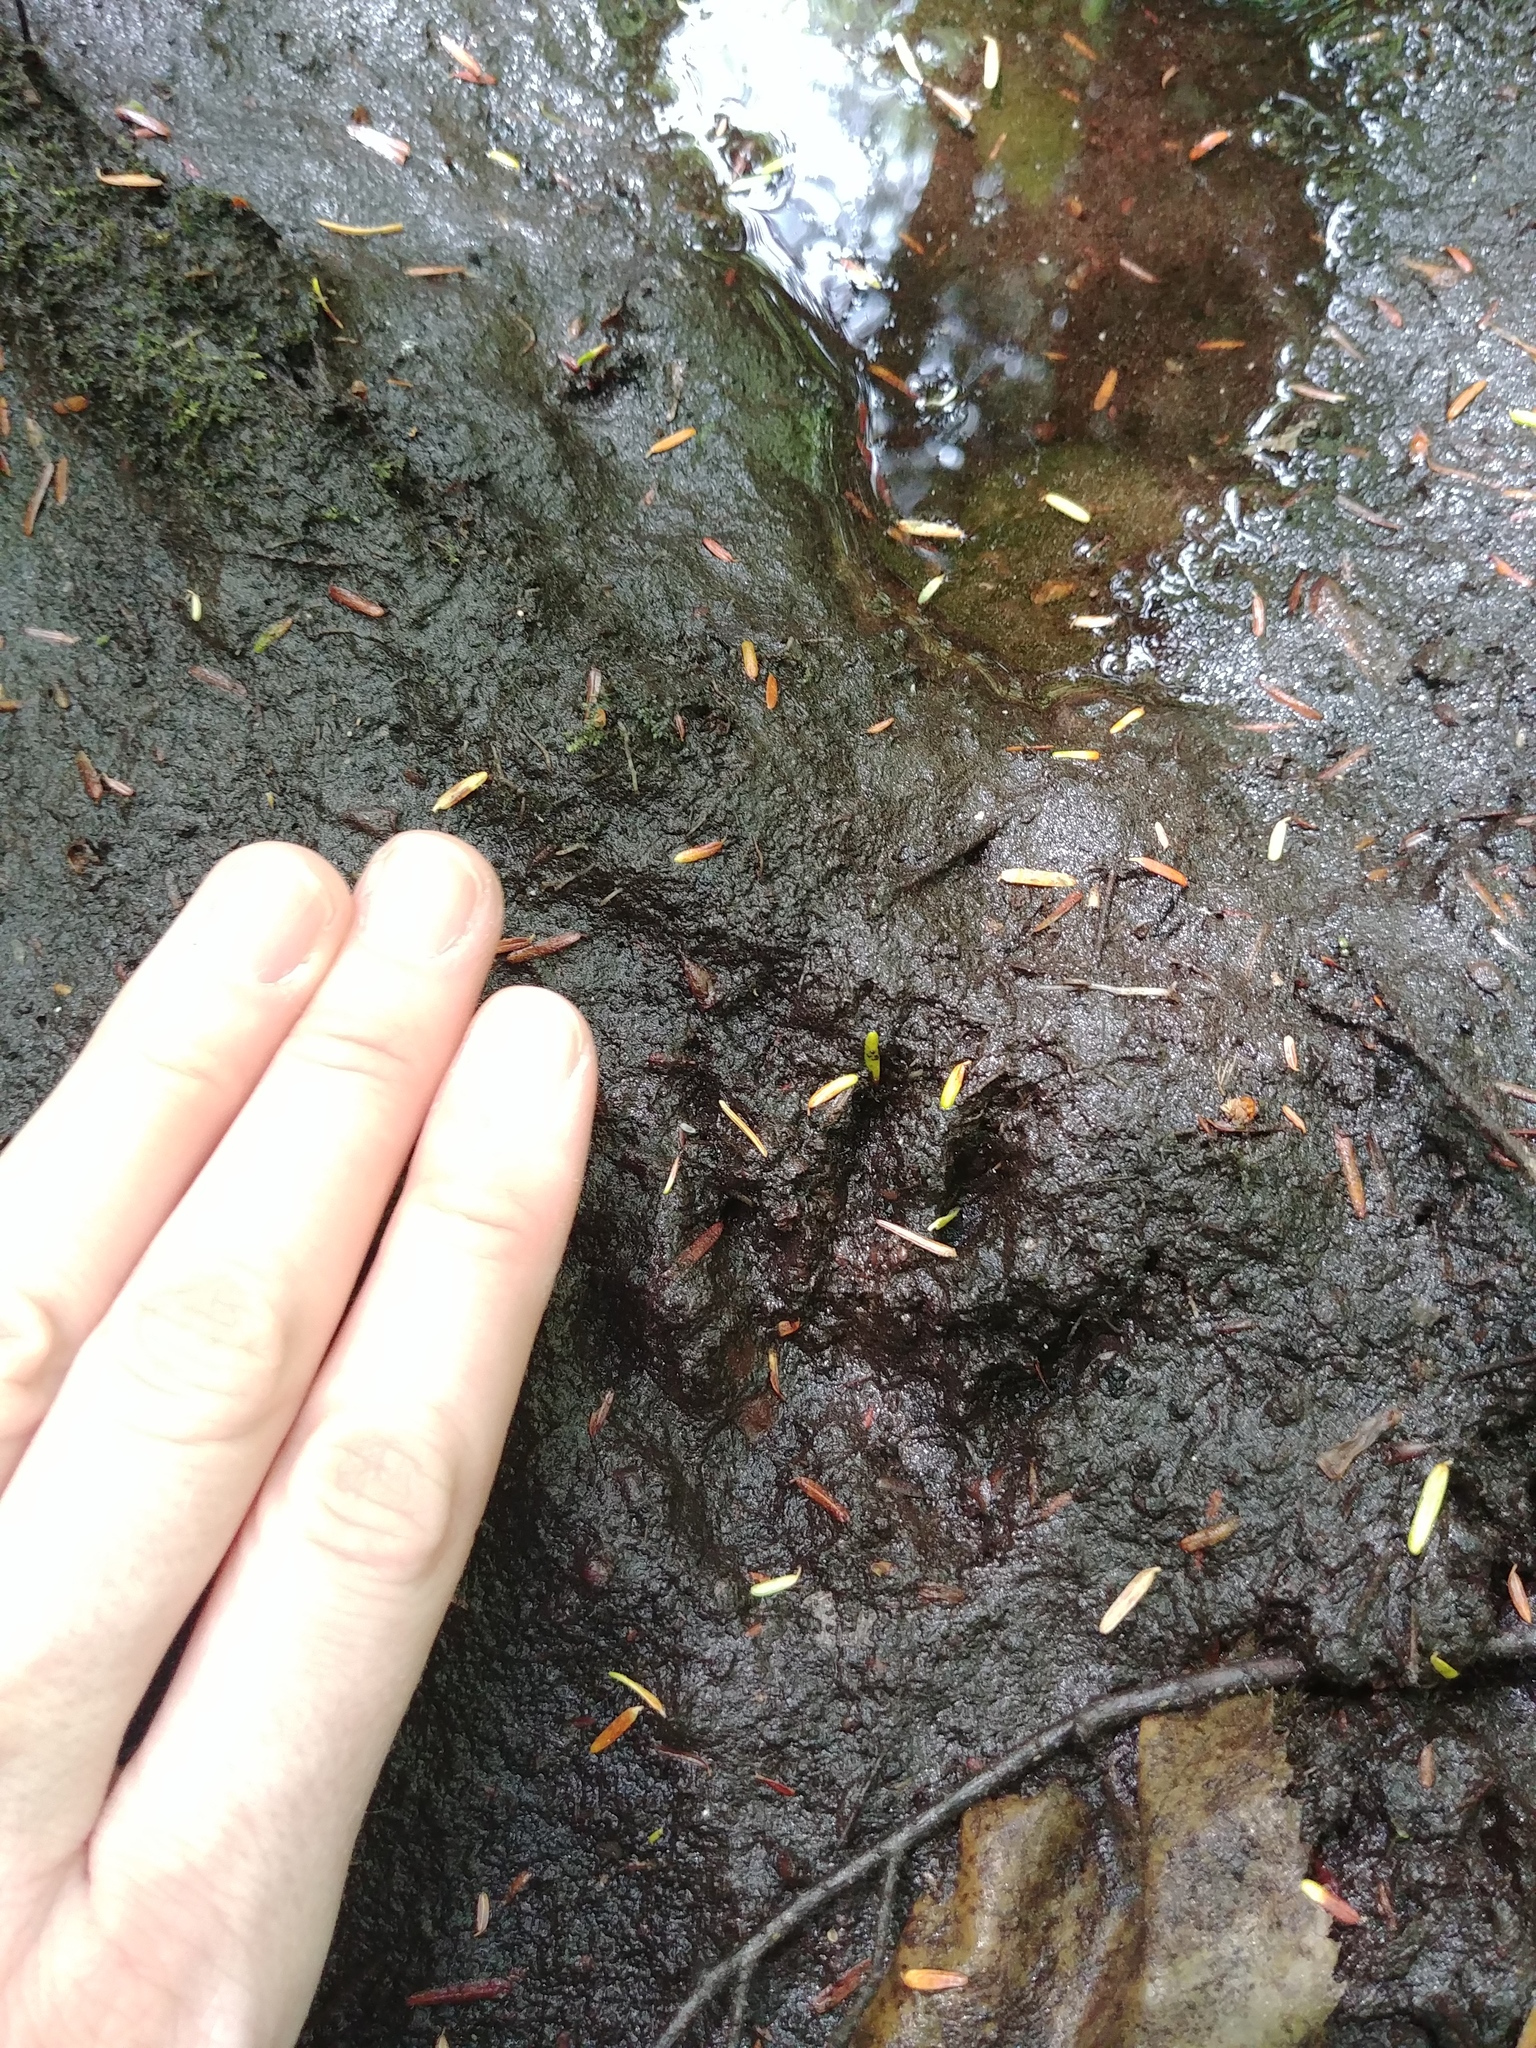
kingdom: Animalia
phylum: Chordata
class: Mammalia
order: Carnivora
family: Procyonidae
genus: Procyon
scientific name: Procyon lotor
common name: Raccoon
